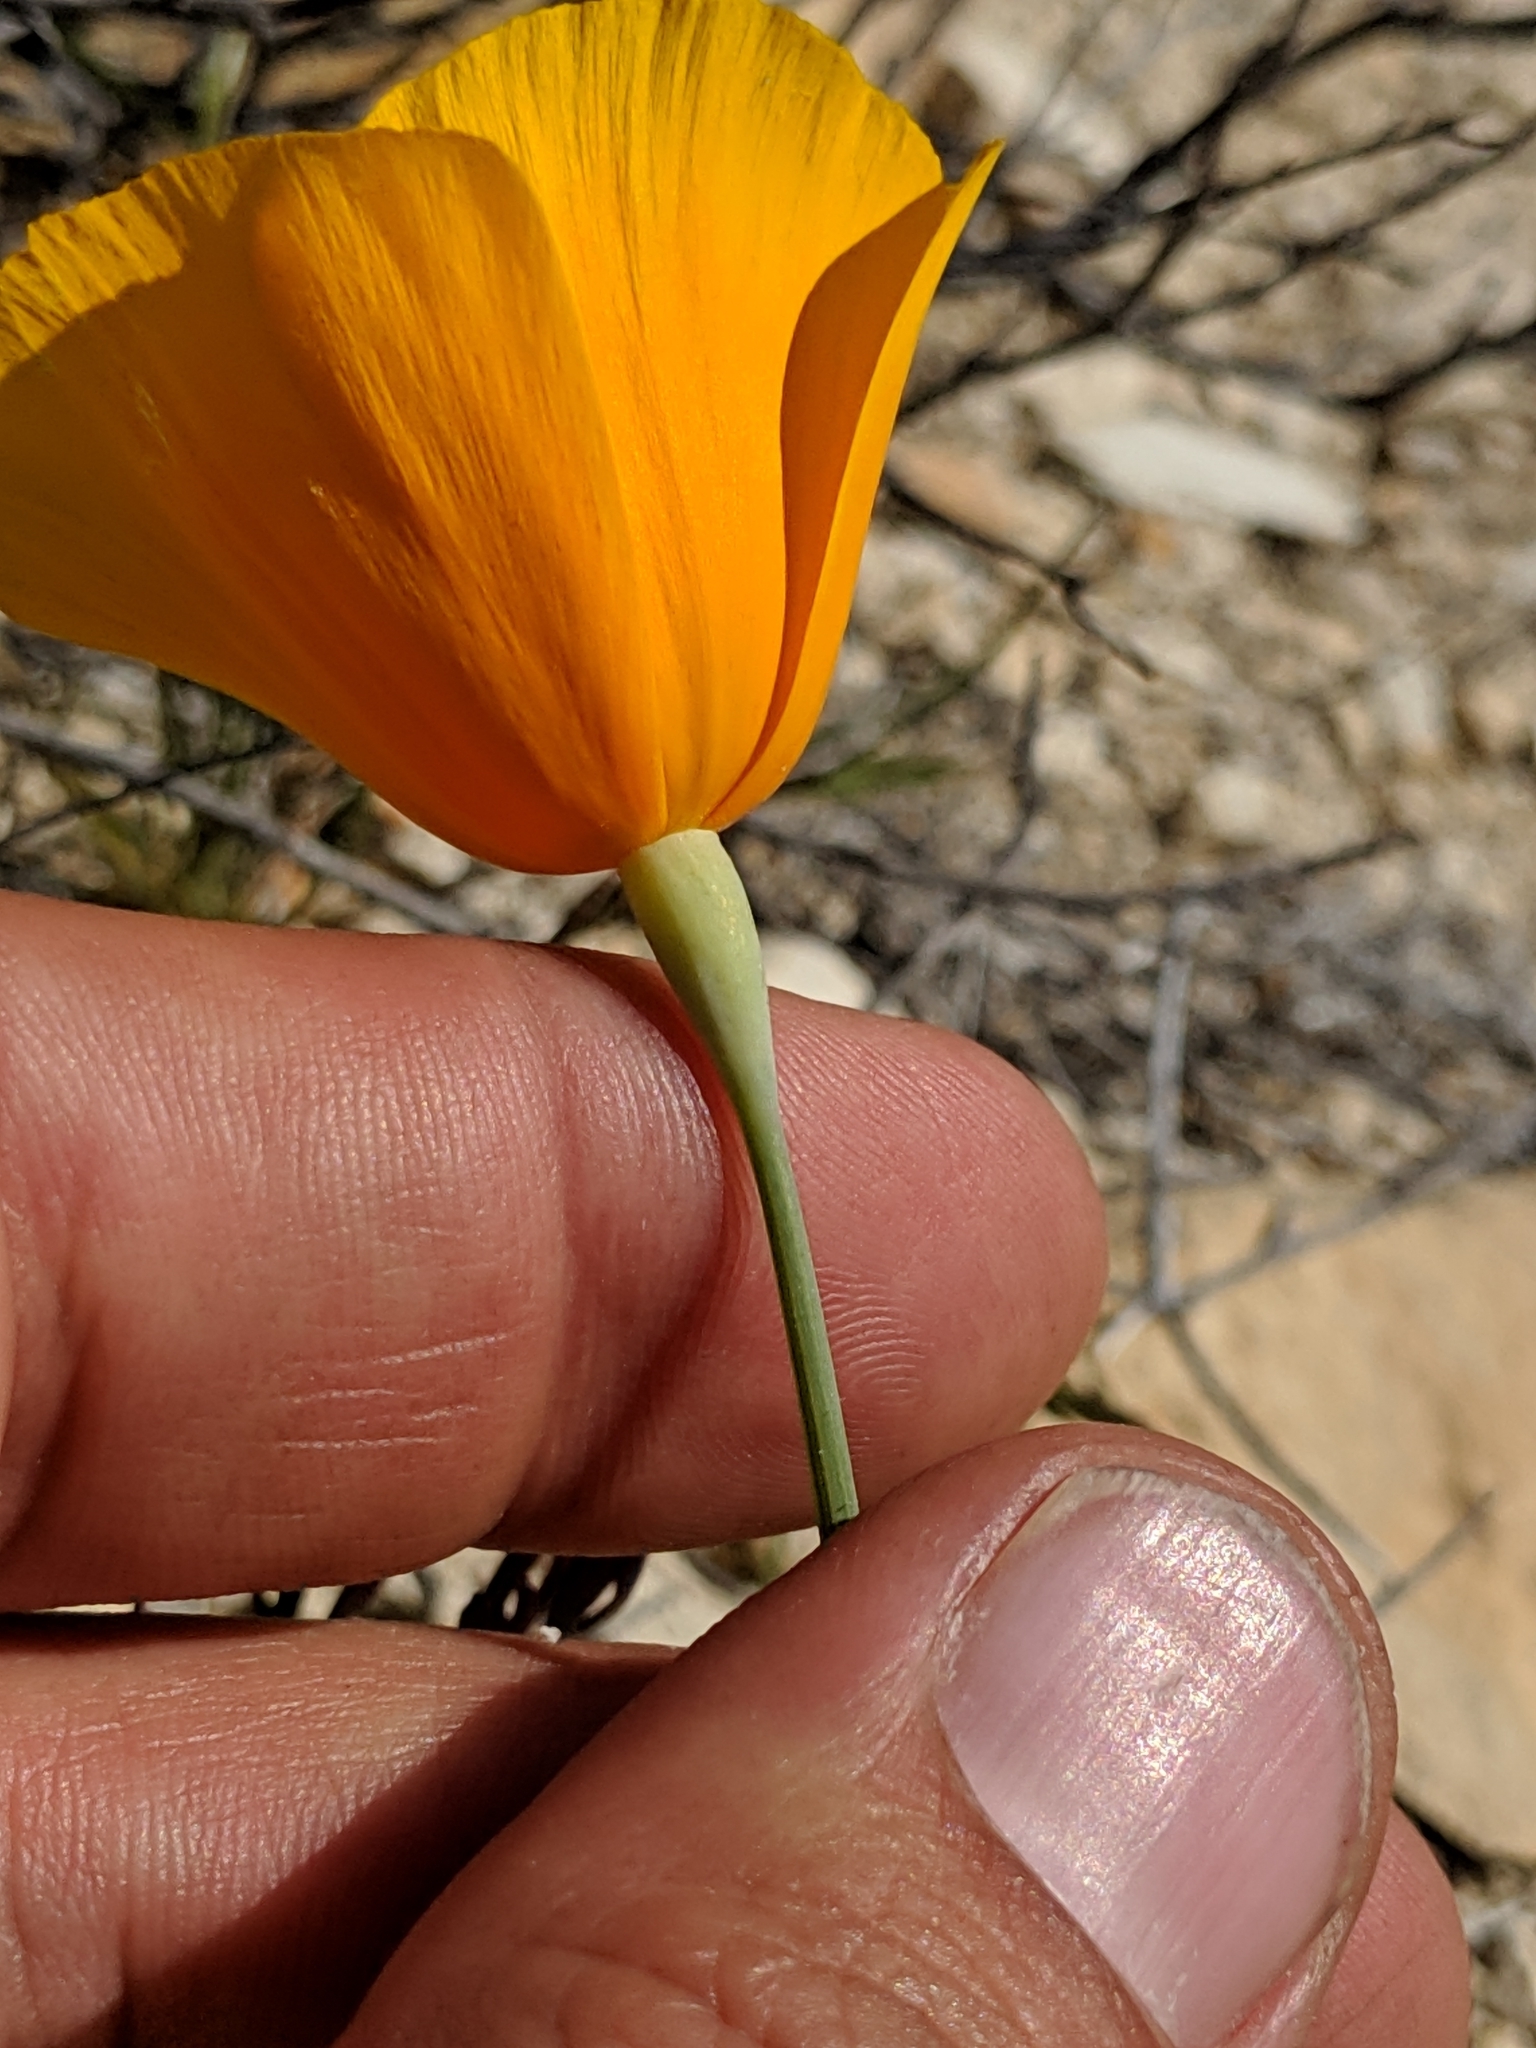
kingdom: Plantae
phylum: Tracheophyta
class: Magnoliopsida
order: Ranunculales
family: Papaveraceae
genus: Eschscholzia
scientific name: Eschscholzia lemmonii
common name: Lemmon's poppy
